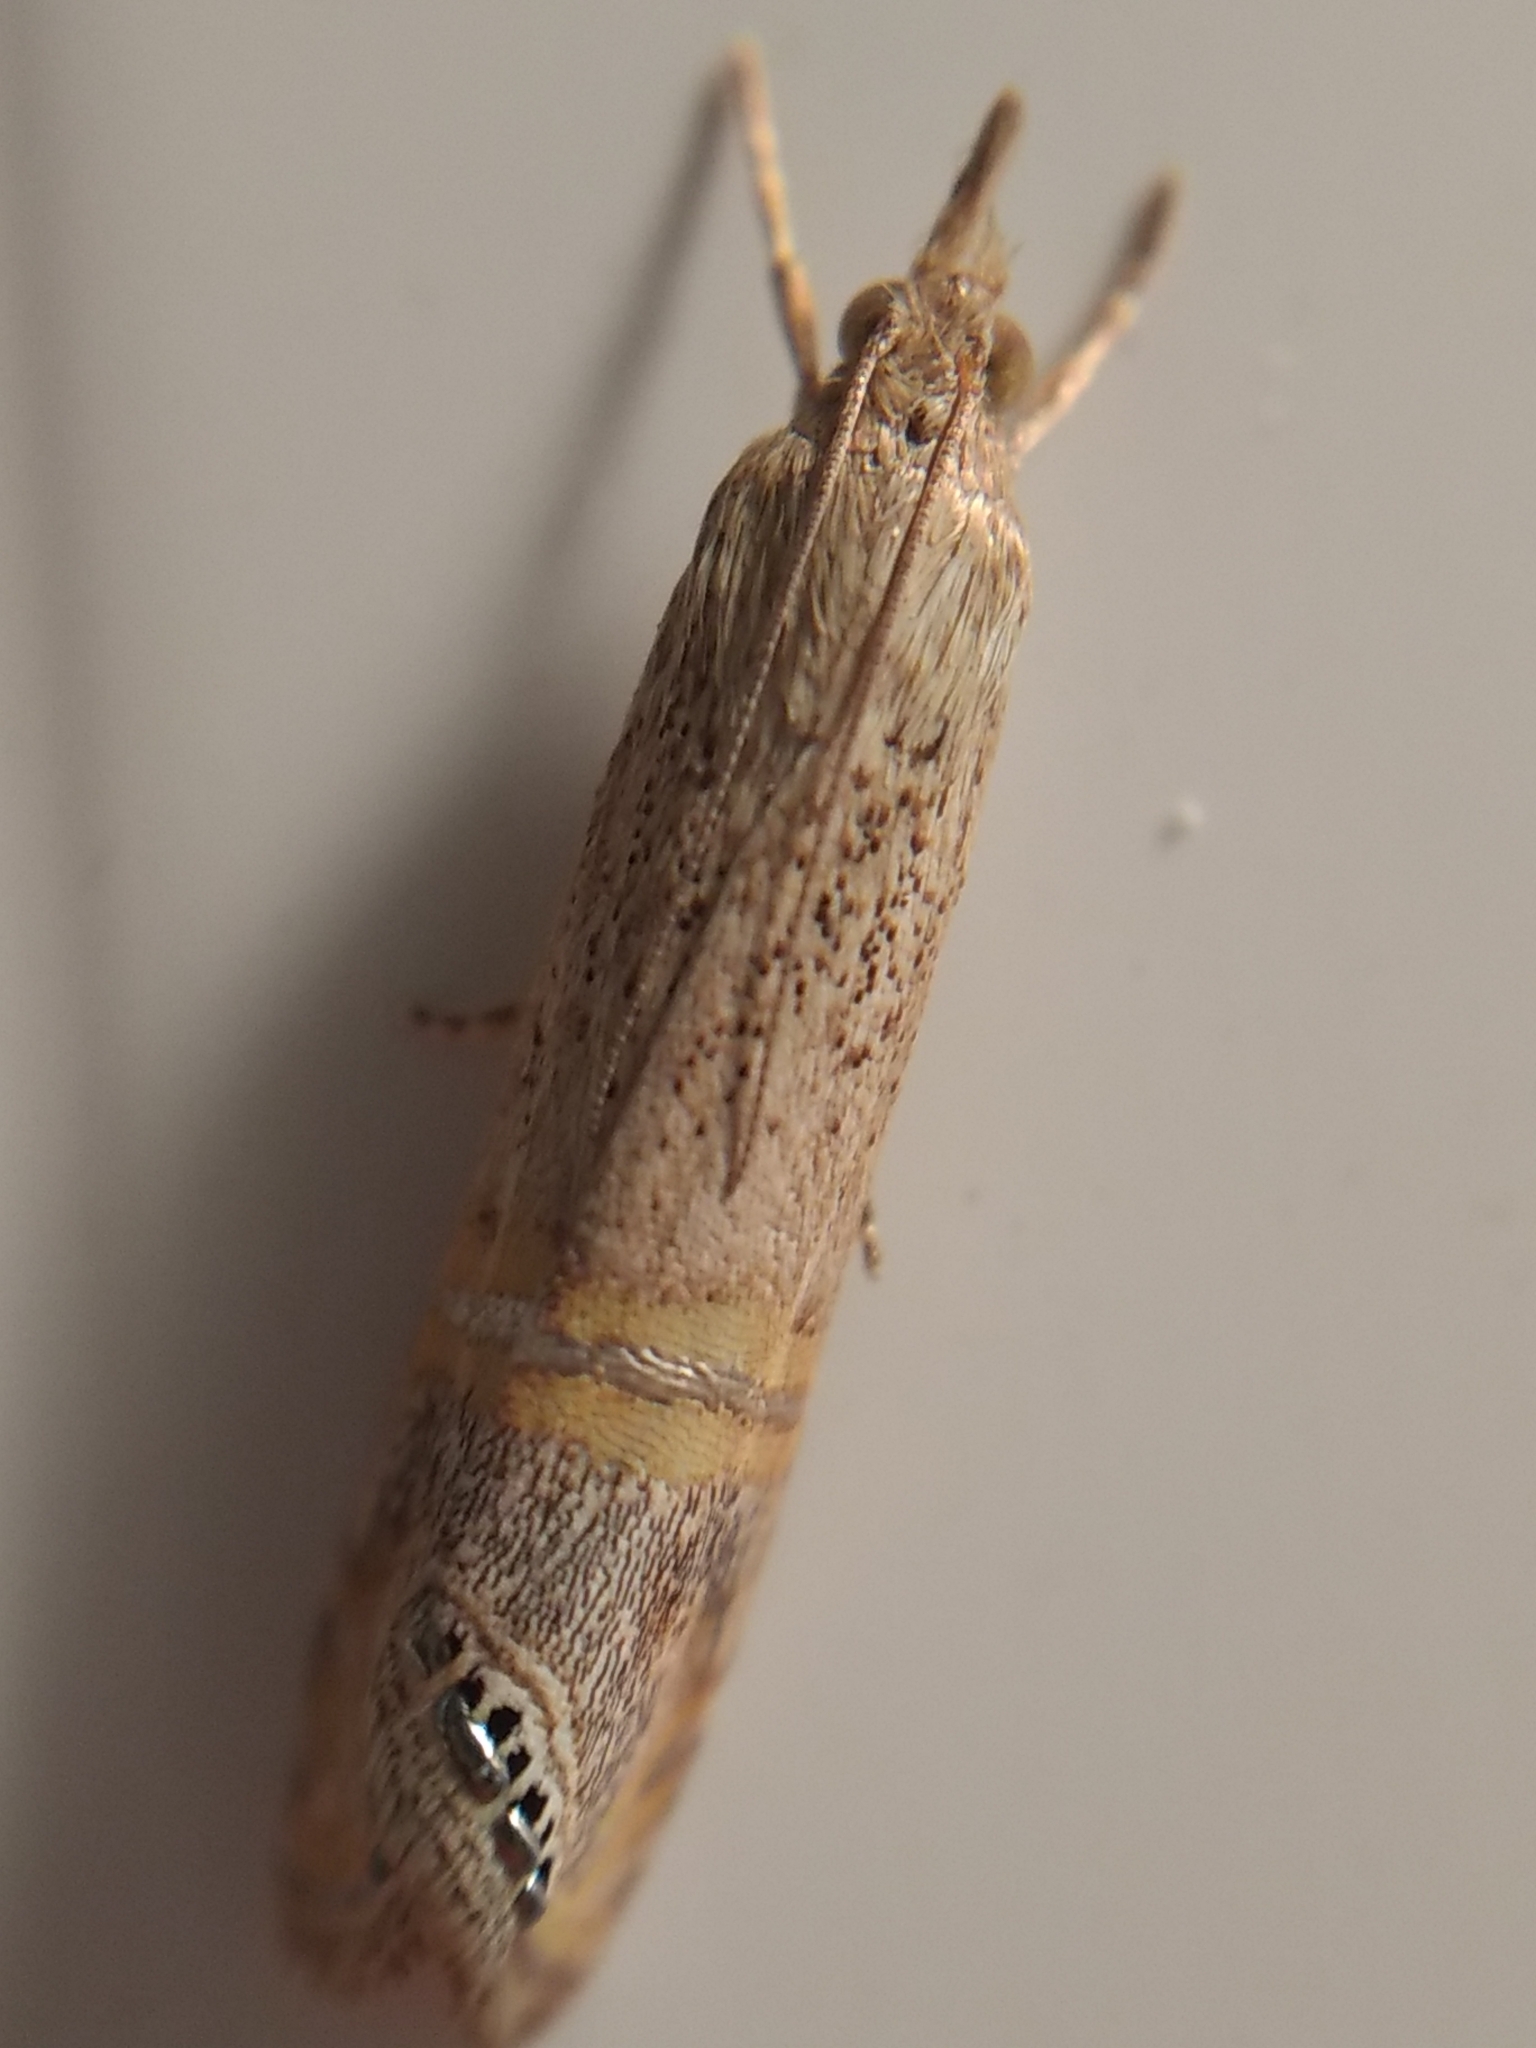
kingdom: Animalia
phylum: Arthropoda
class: Insecta
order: Lepidoptera
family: Crambidae
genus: Euchromius
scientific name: Euchromius ocellea
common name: Necklace veneer moth
